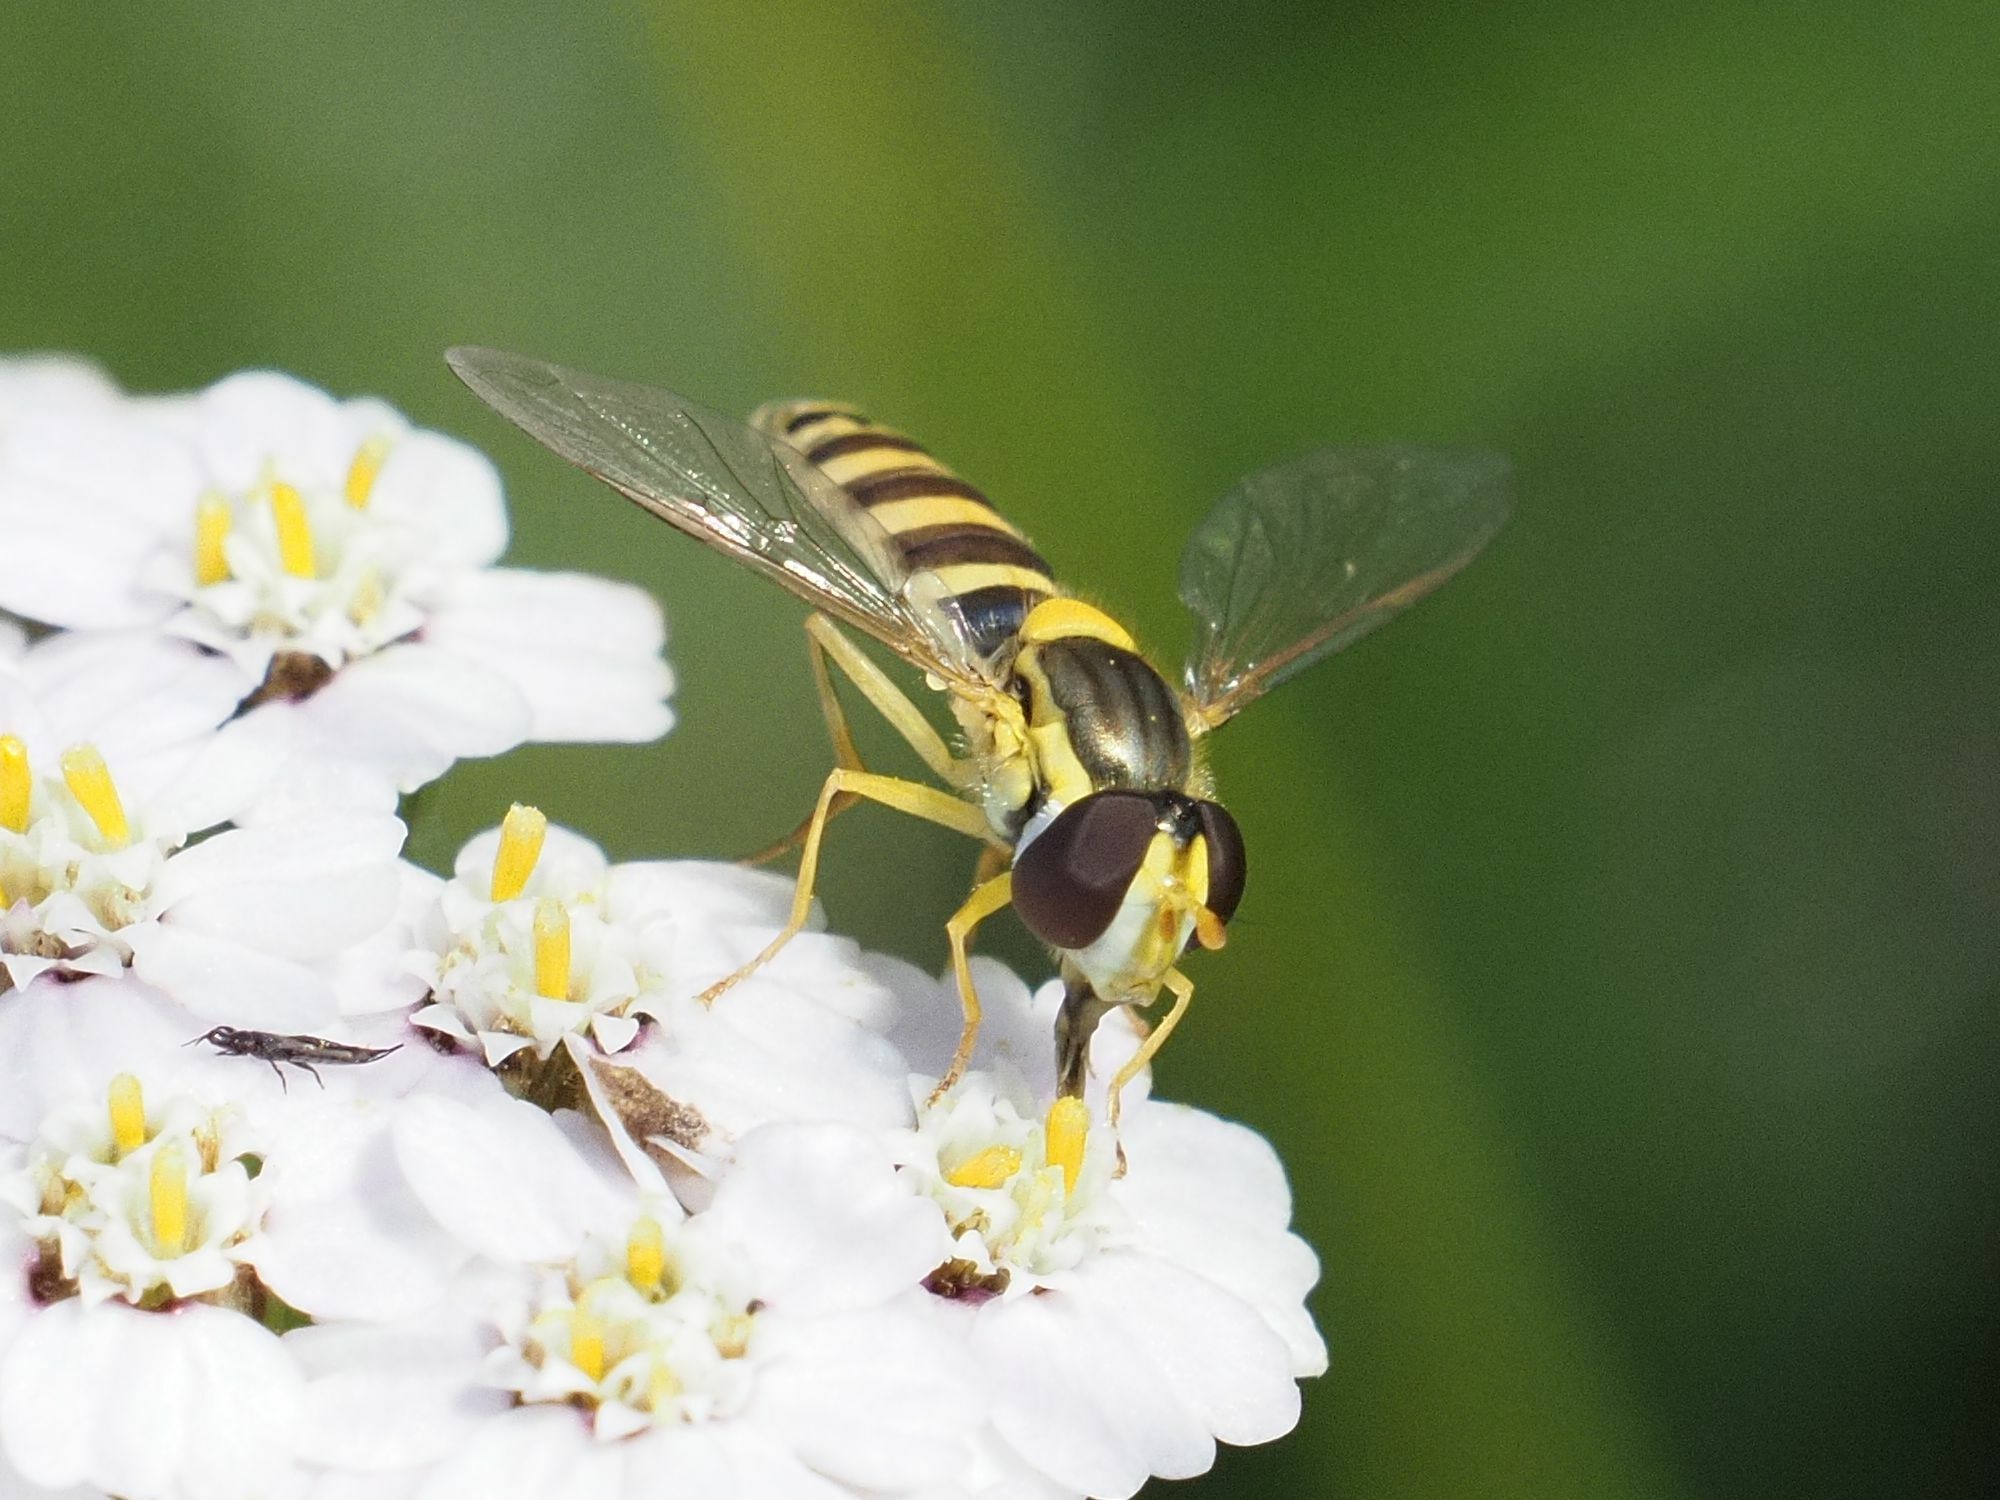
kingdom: Animalia
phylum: Arthropoda
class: Insecta
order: Diptera
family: Syrphidae
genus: Sphaerophoria
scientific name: Sphaerophoria
